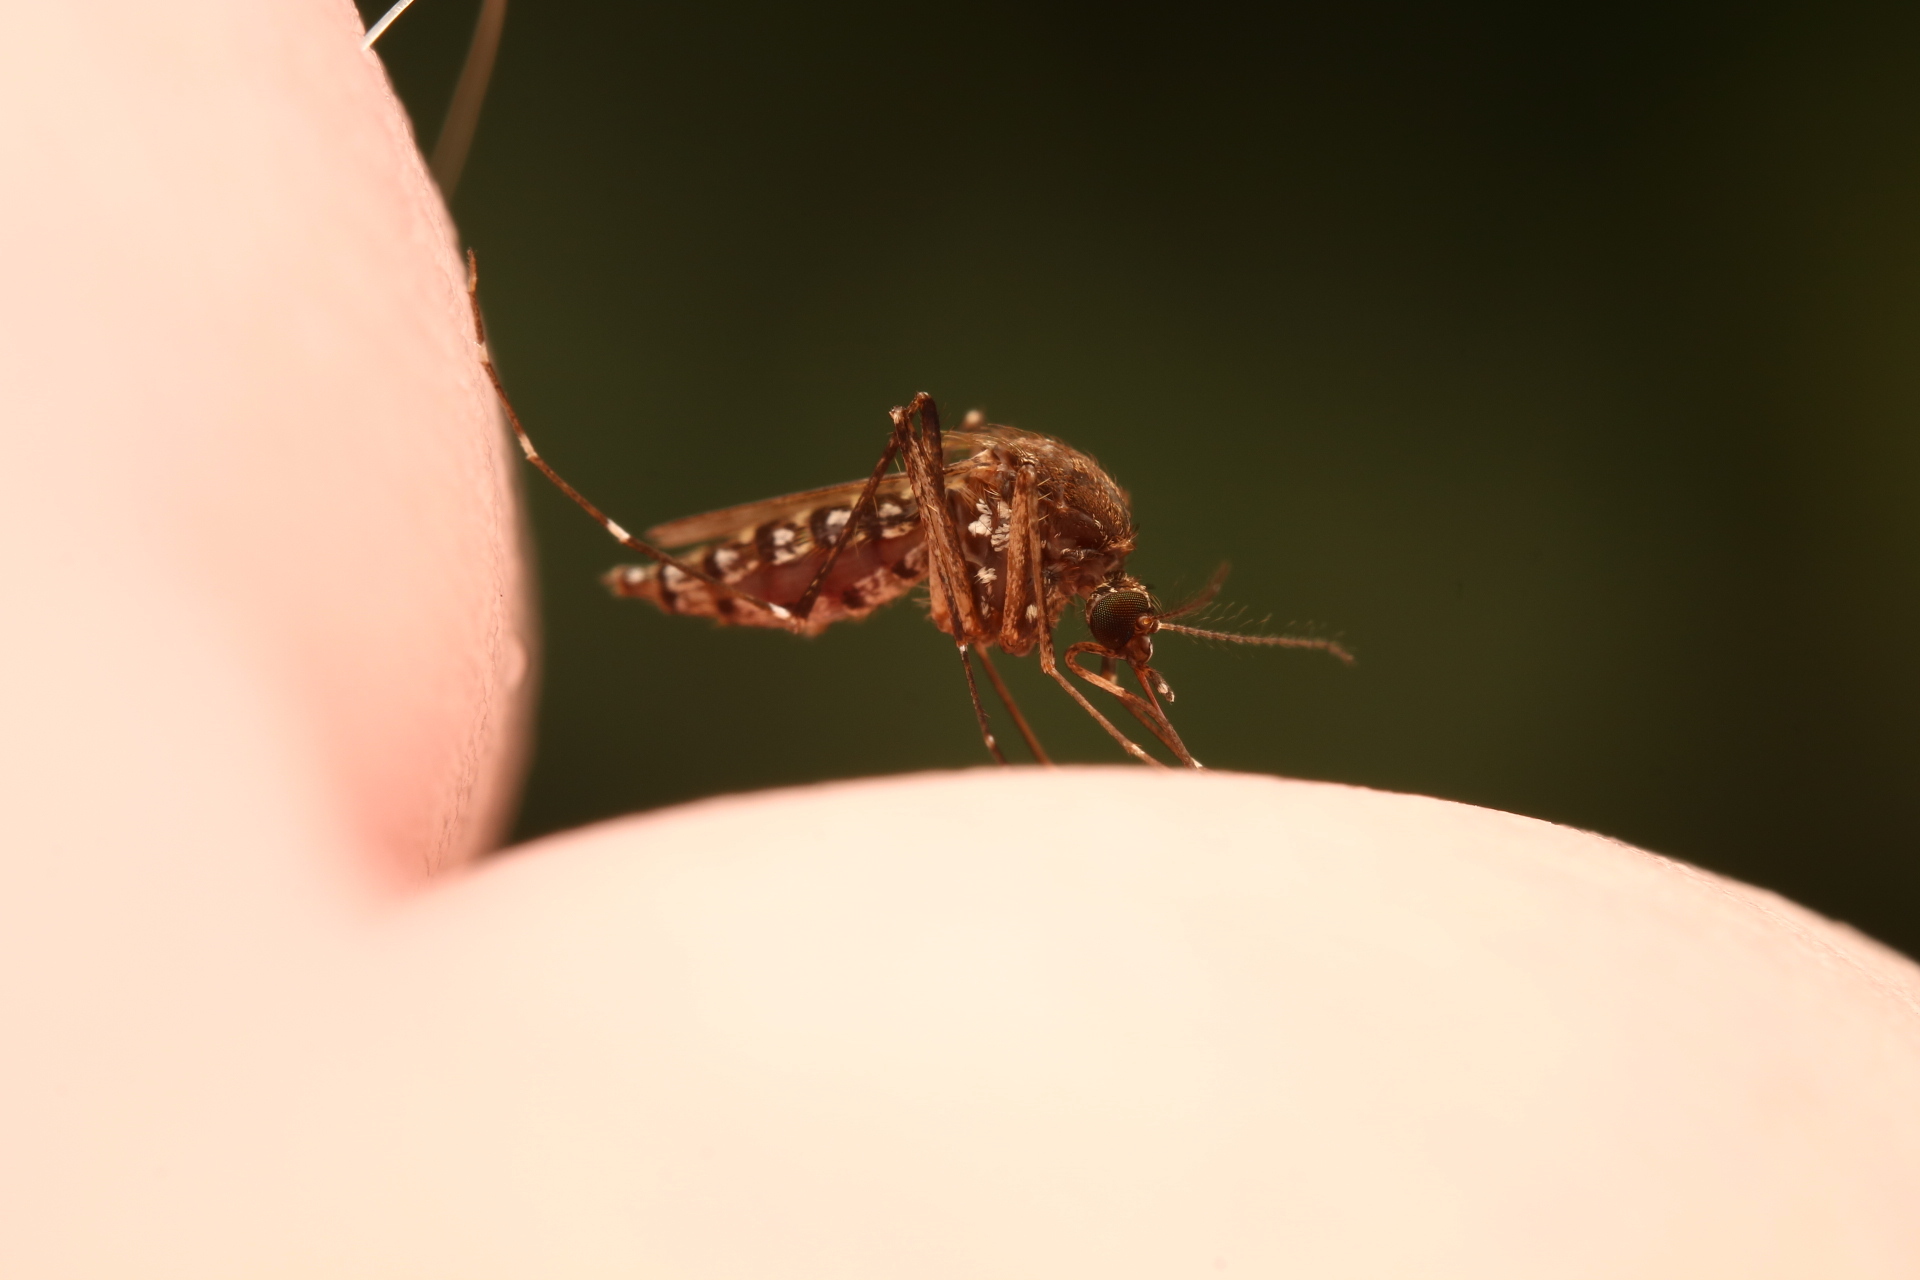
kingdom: Animalia
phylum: Arthropoda
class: Insecta
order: Diptera
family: Culicidae
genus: Aedes
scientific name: Aedes taeniorhynchus
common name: Black salt marsh mosquito
